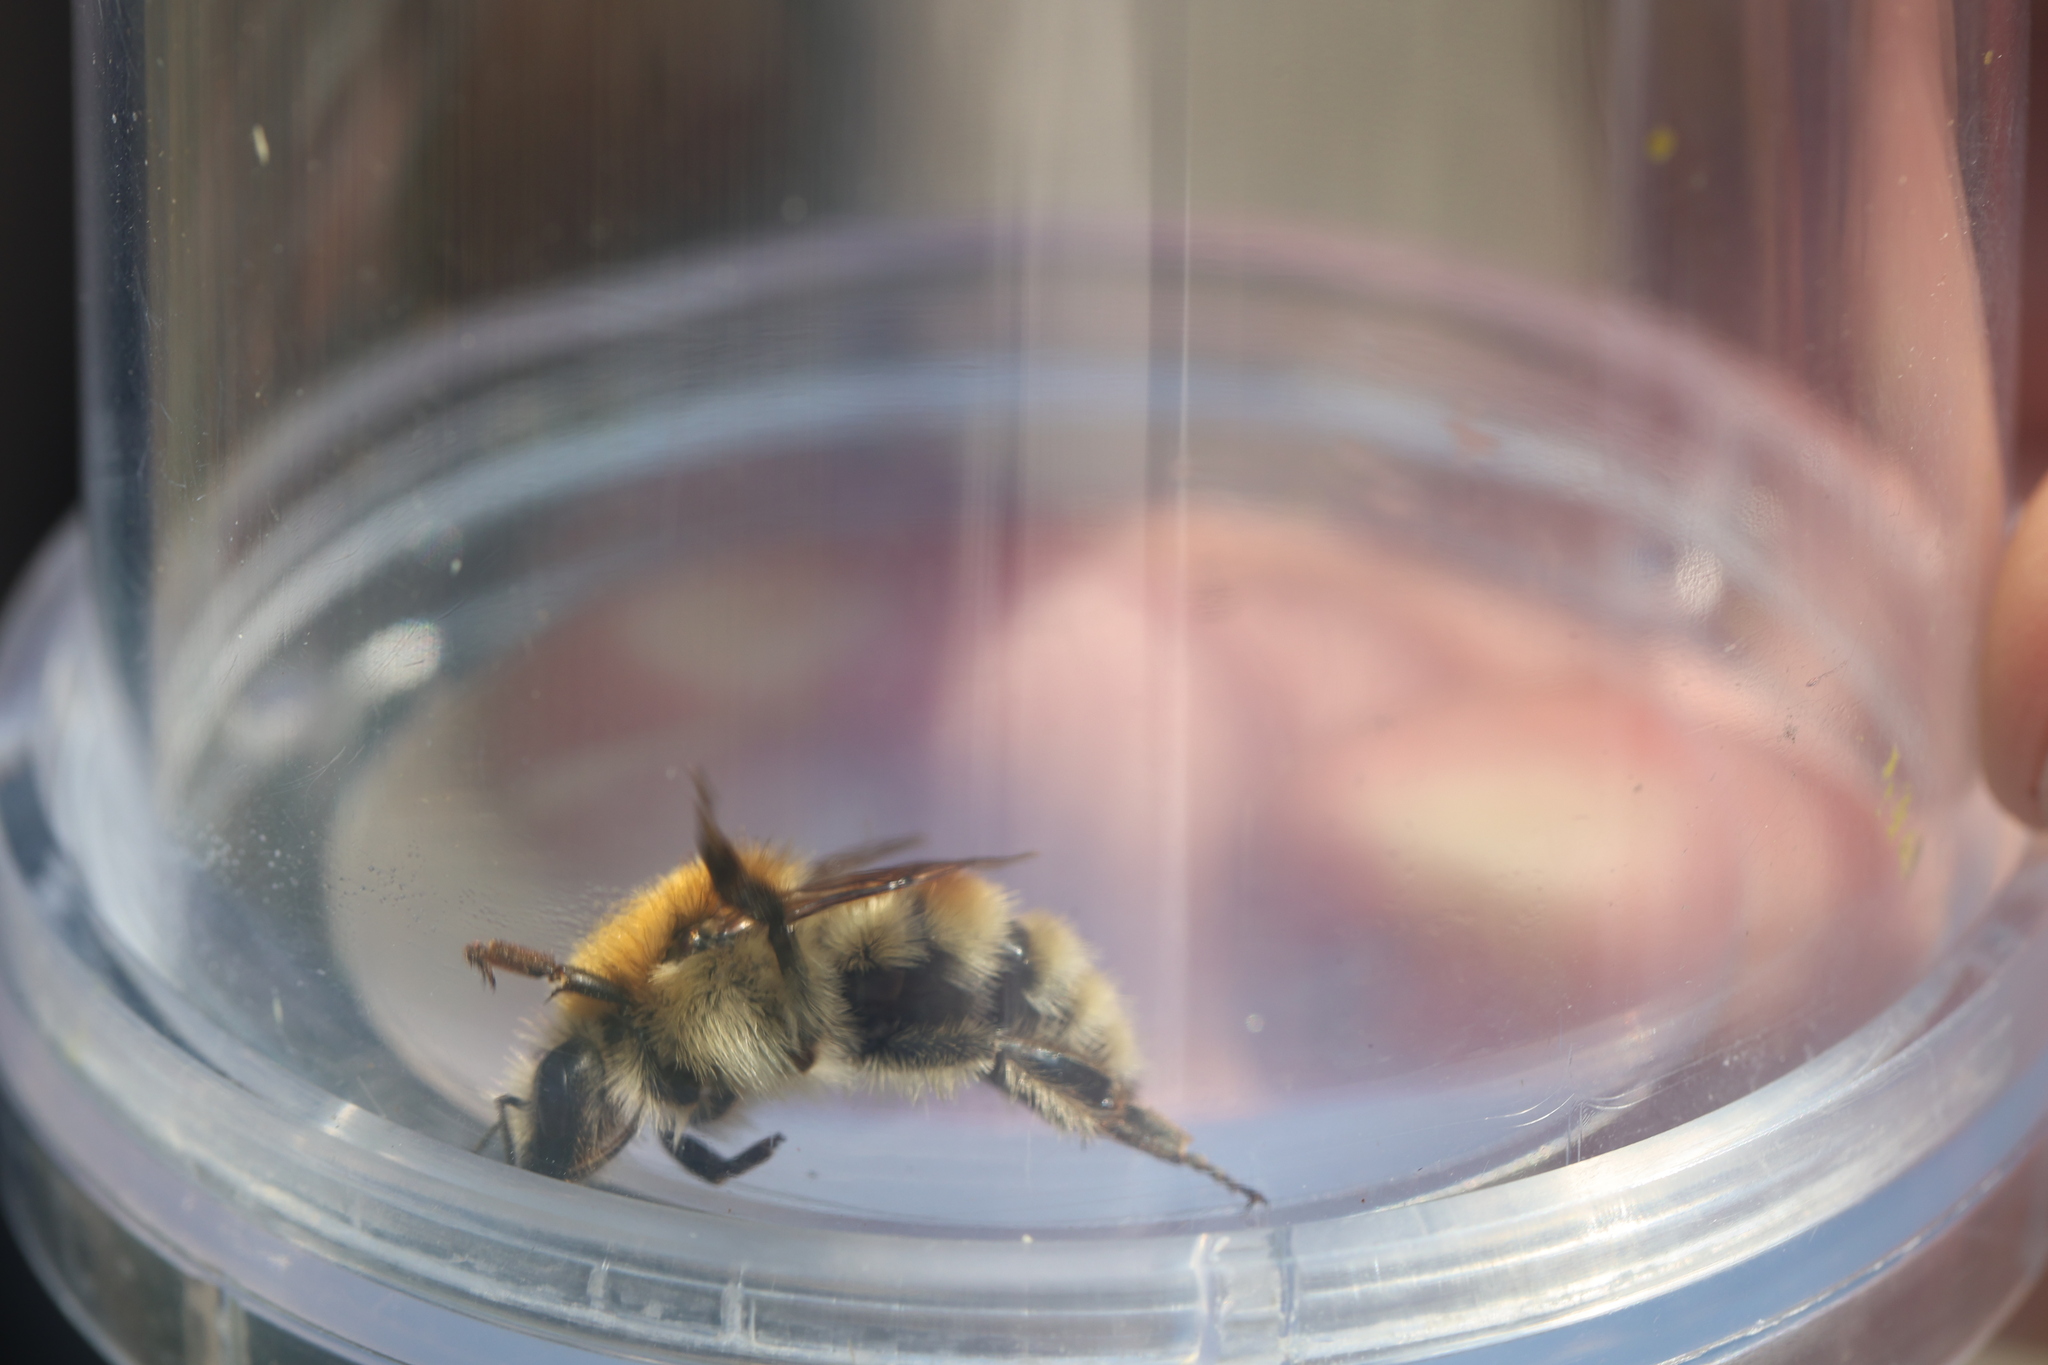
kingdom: Animalia
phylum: Arthropoda
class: Insecta
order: Hymenoptera
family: Apidae
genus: Bombus
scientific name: Bombus humilis
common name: Brown-banded carder-bee
